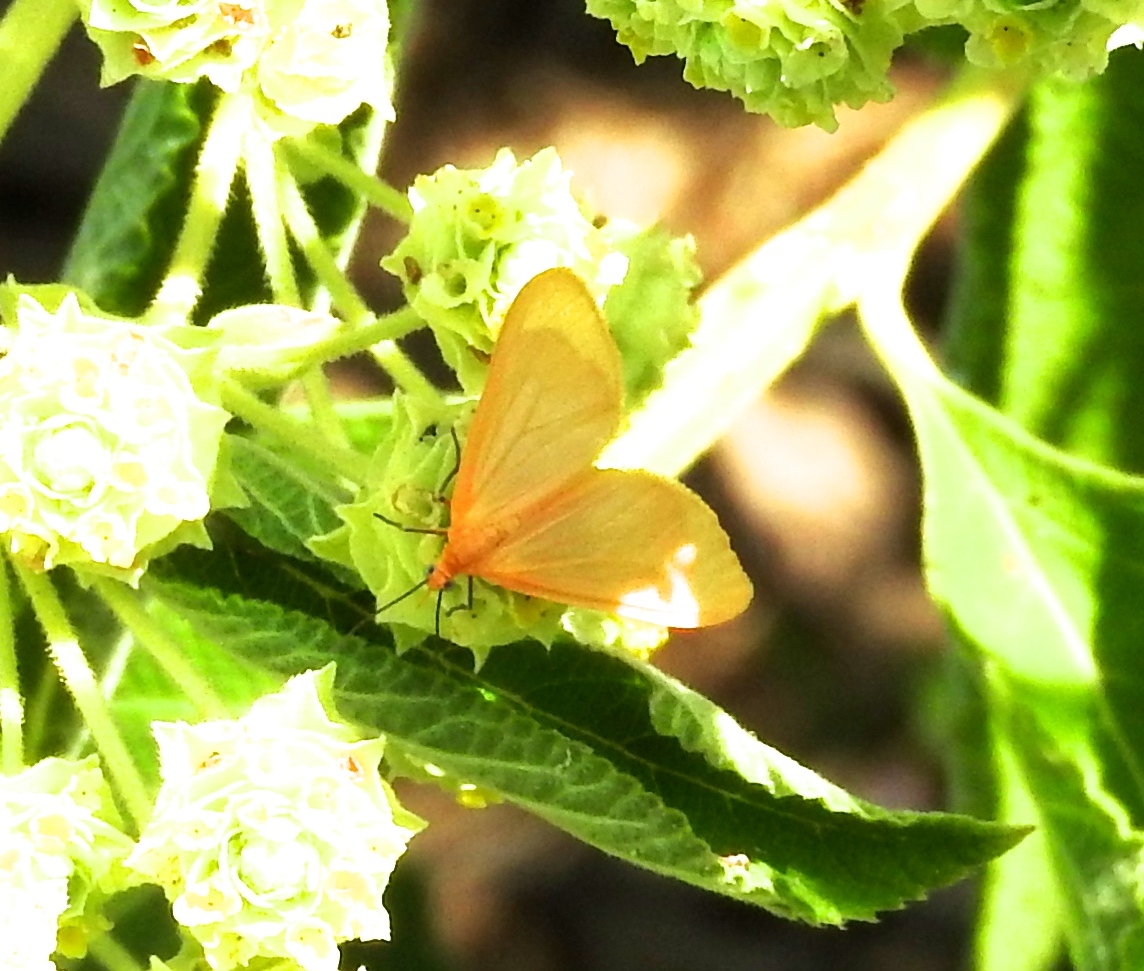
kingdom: Animalia
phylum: Arthropoda
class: Insecta
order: Lepidoptera
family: Geometridae
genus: Eubaphe
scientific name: Eubaphe unicolor
